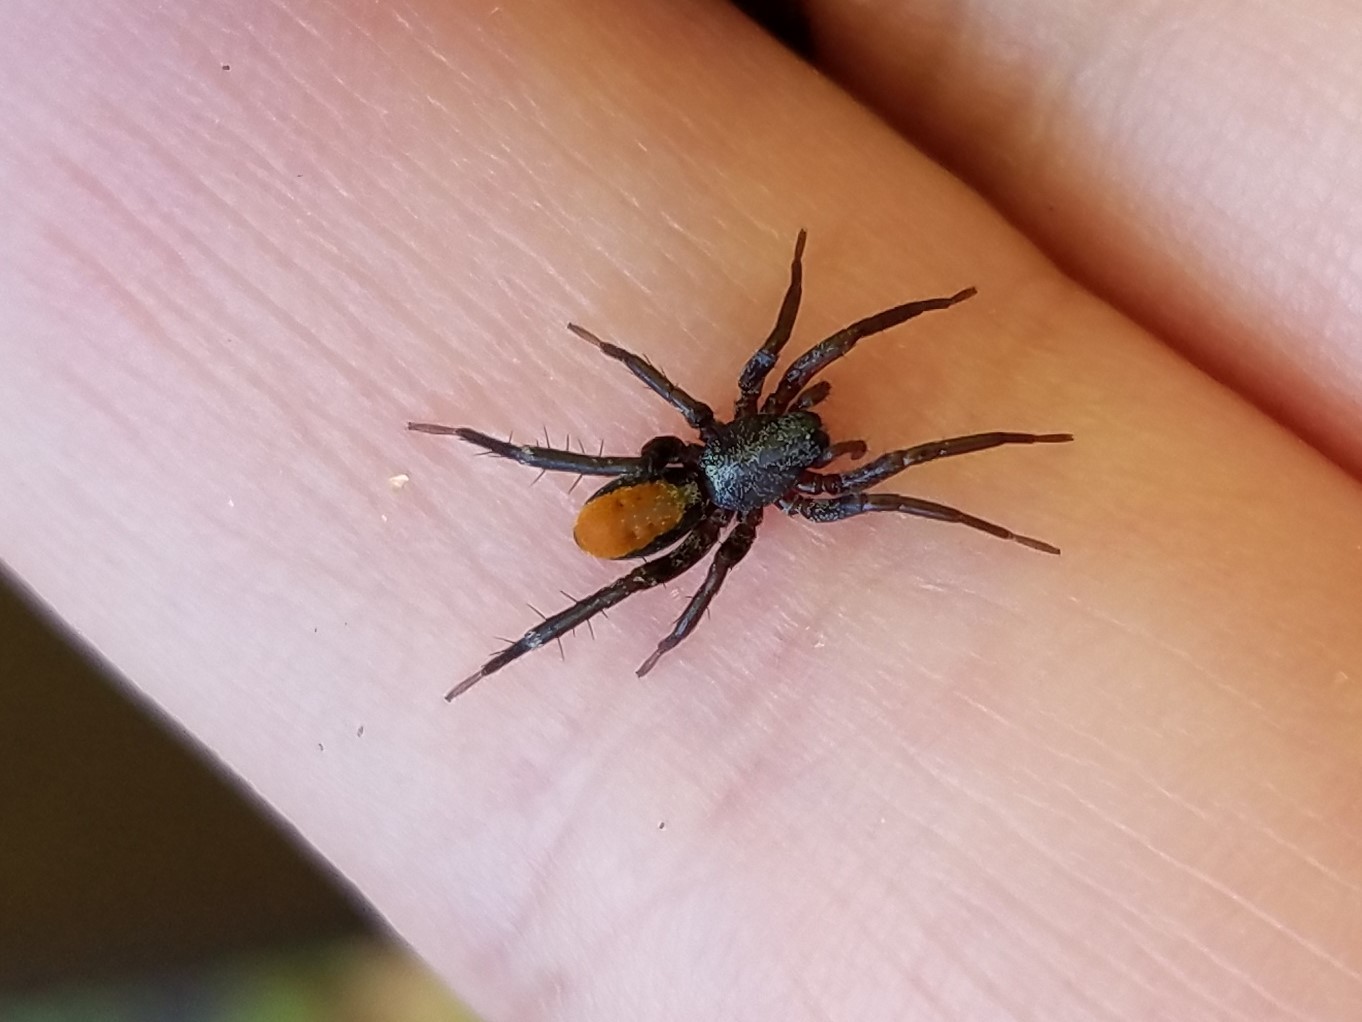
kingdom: Animalia
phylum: Arthropoda
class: Arachnida
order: Araneae
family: Corinnidae
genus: Castianeira
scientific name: Castianeira descripta
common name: Red-spotted ant-mimic sac spider
